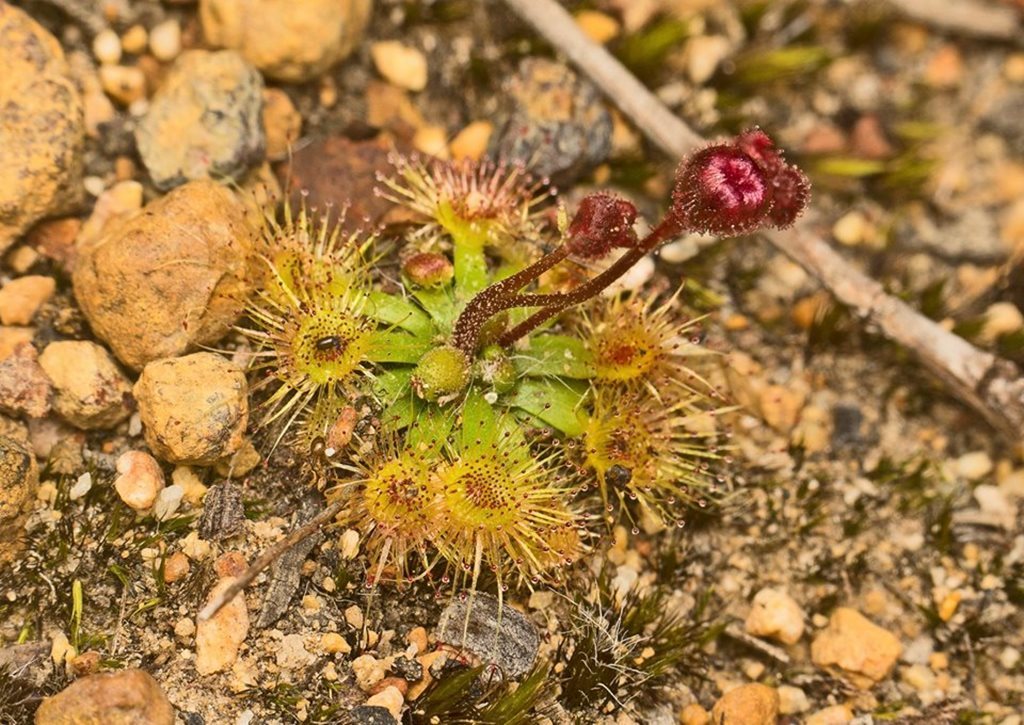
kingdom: Plantae
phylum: Tracheophyta
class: Magnoliopsida
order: Caryophyllales
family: Droseraceae
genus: Drosera
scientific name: Drosera platystigma
